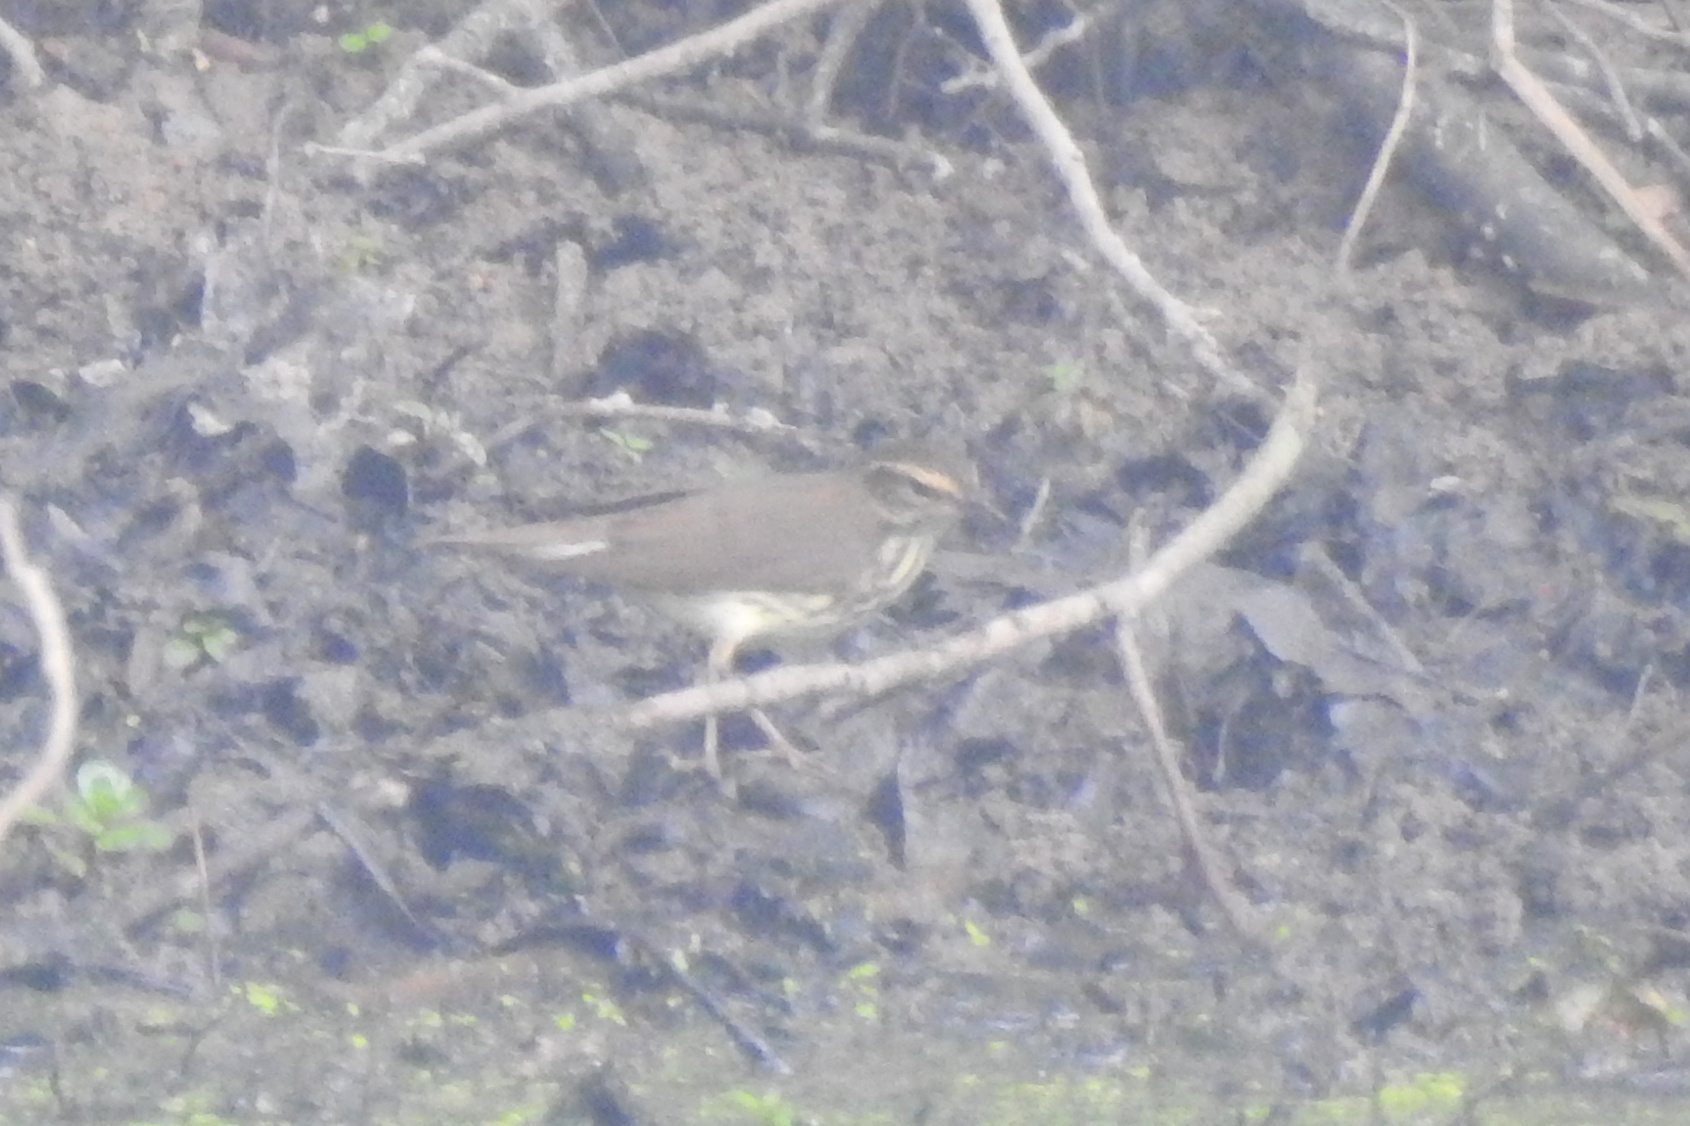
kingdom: Animalia
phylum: Chordata
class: Aves
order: Passeriformes
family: Parulidae
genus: Parkesia
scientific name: Parkesia noveboracensis
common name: Northern waterthrush
